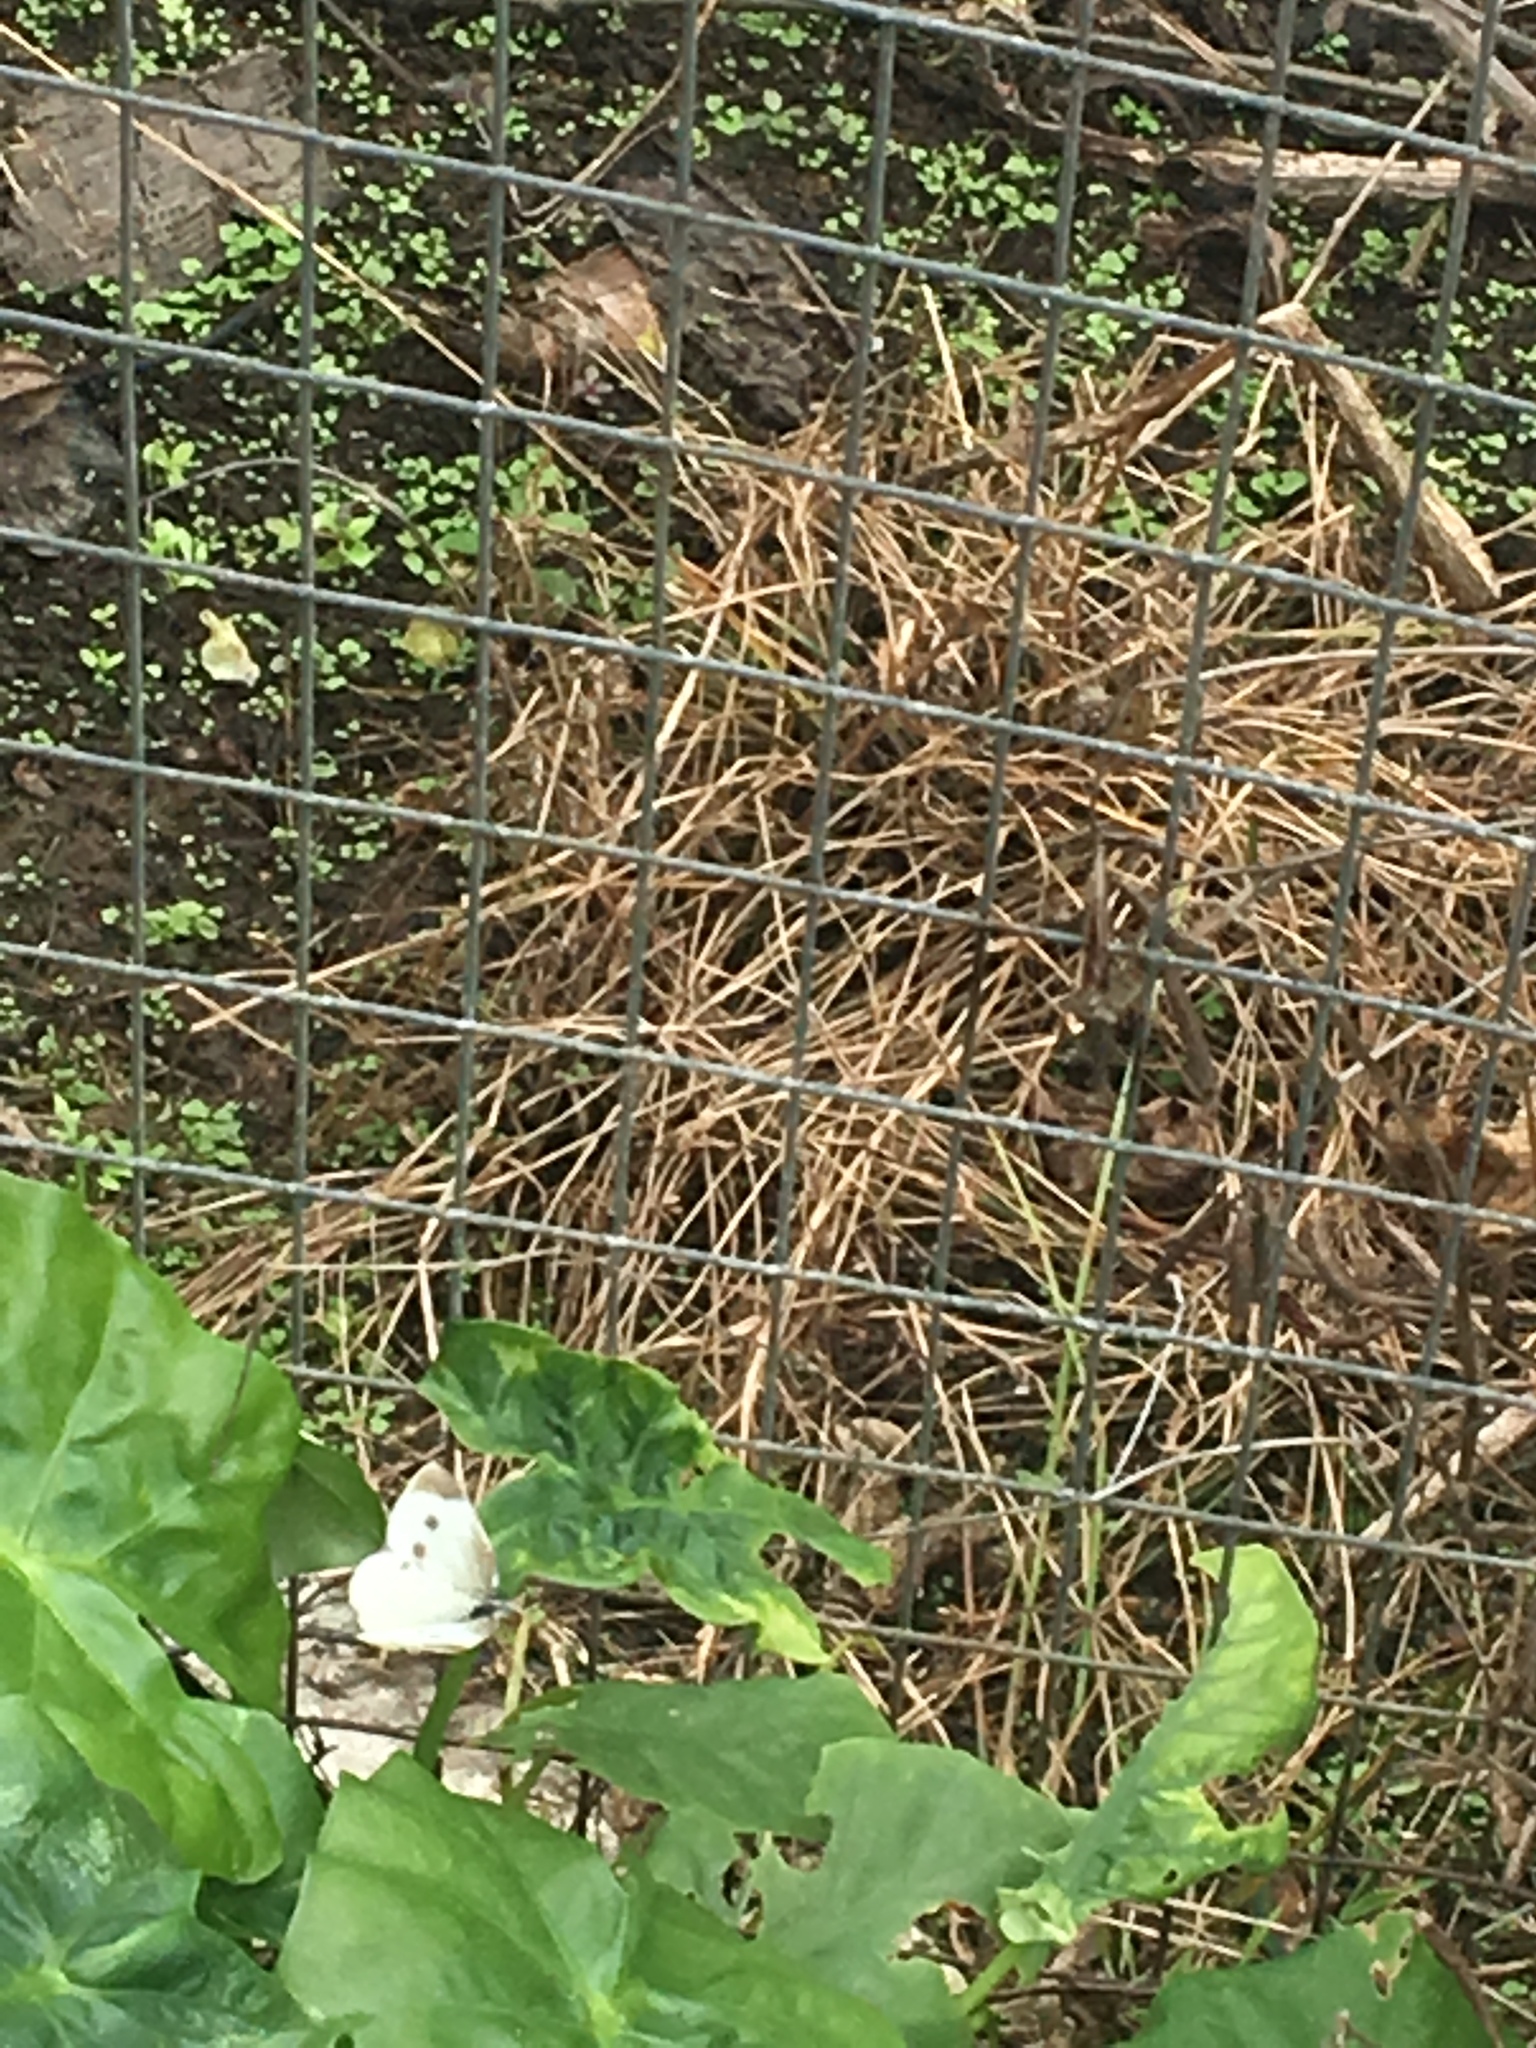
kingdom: Animalia
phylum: Arthropoda
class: Insecta
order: Lepidoptera
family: Pieridae
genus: Pieris
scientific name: Pieris rapae
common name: Small white
